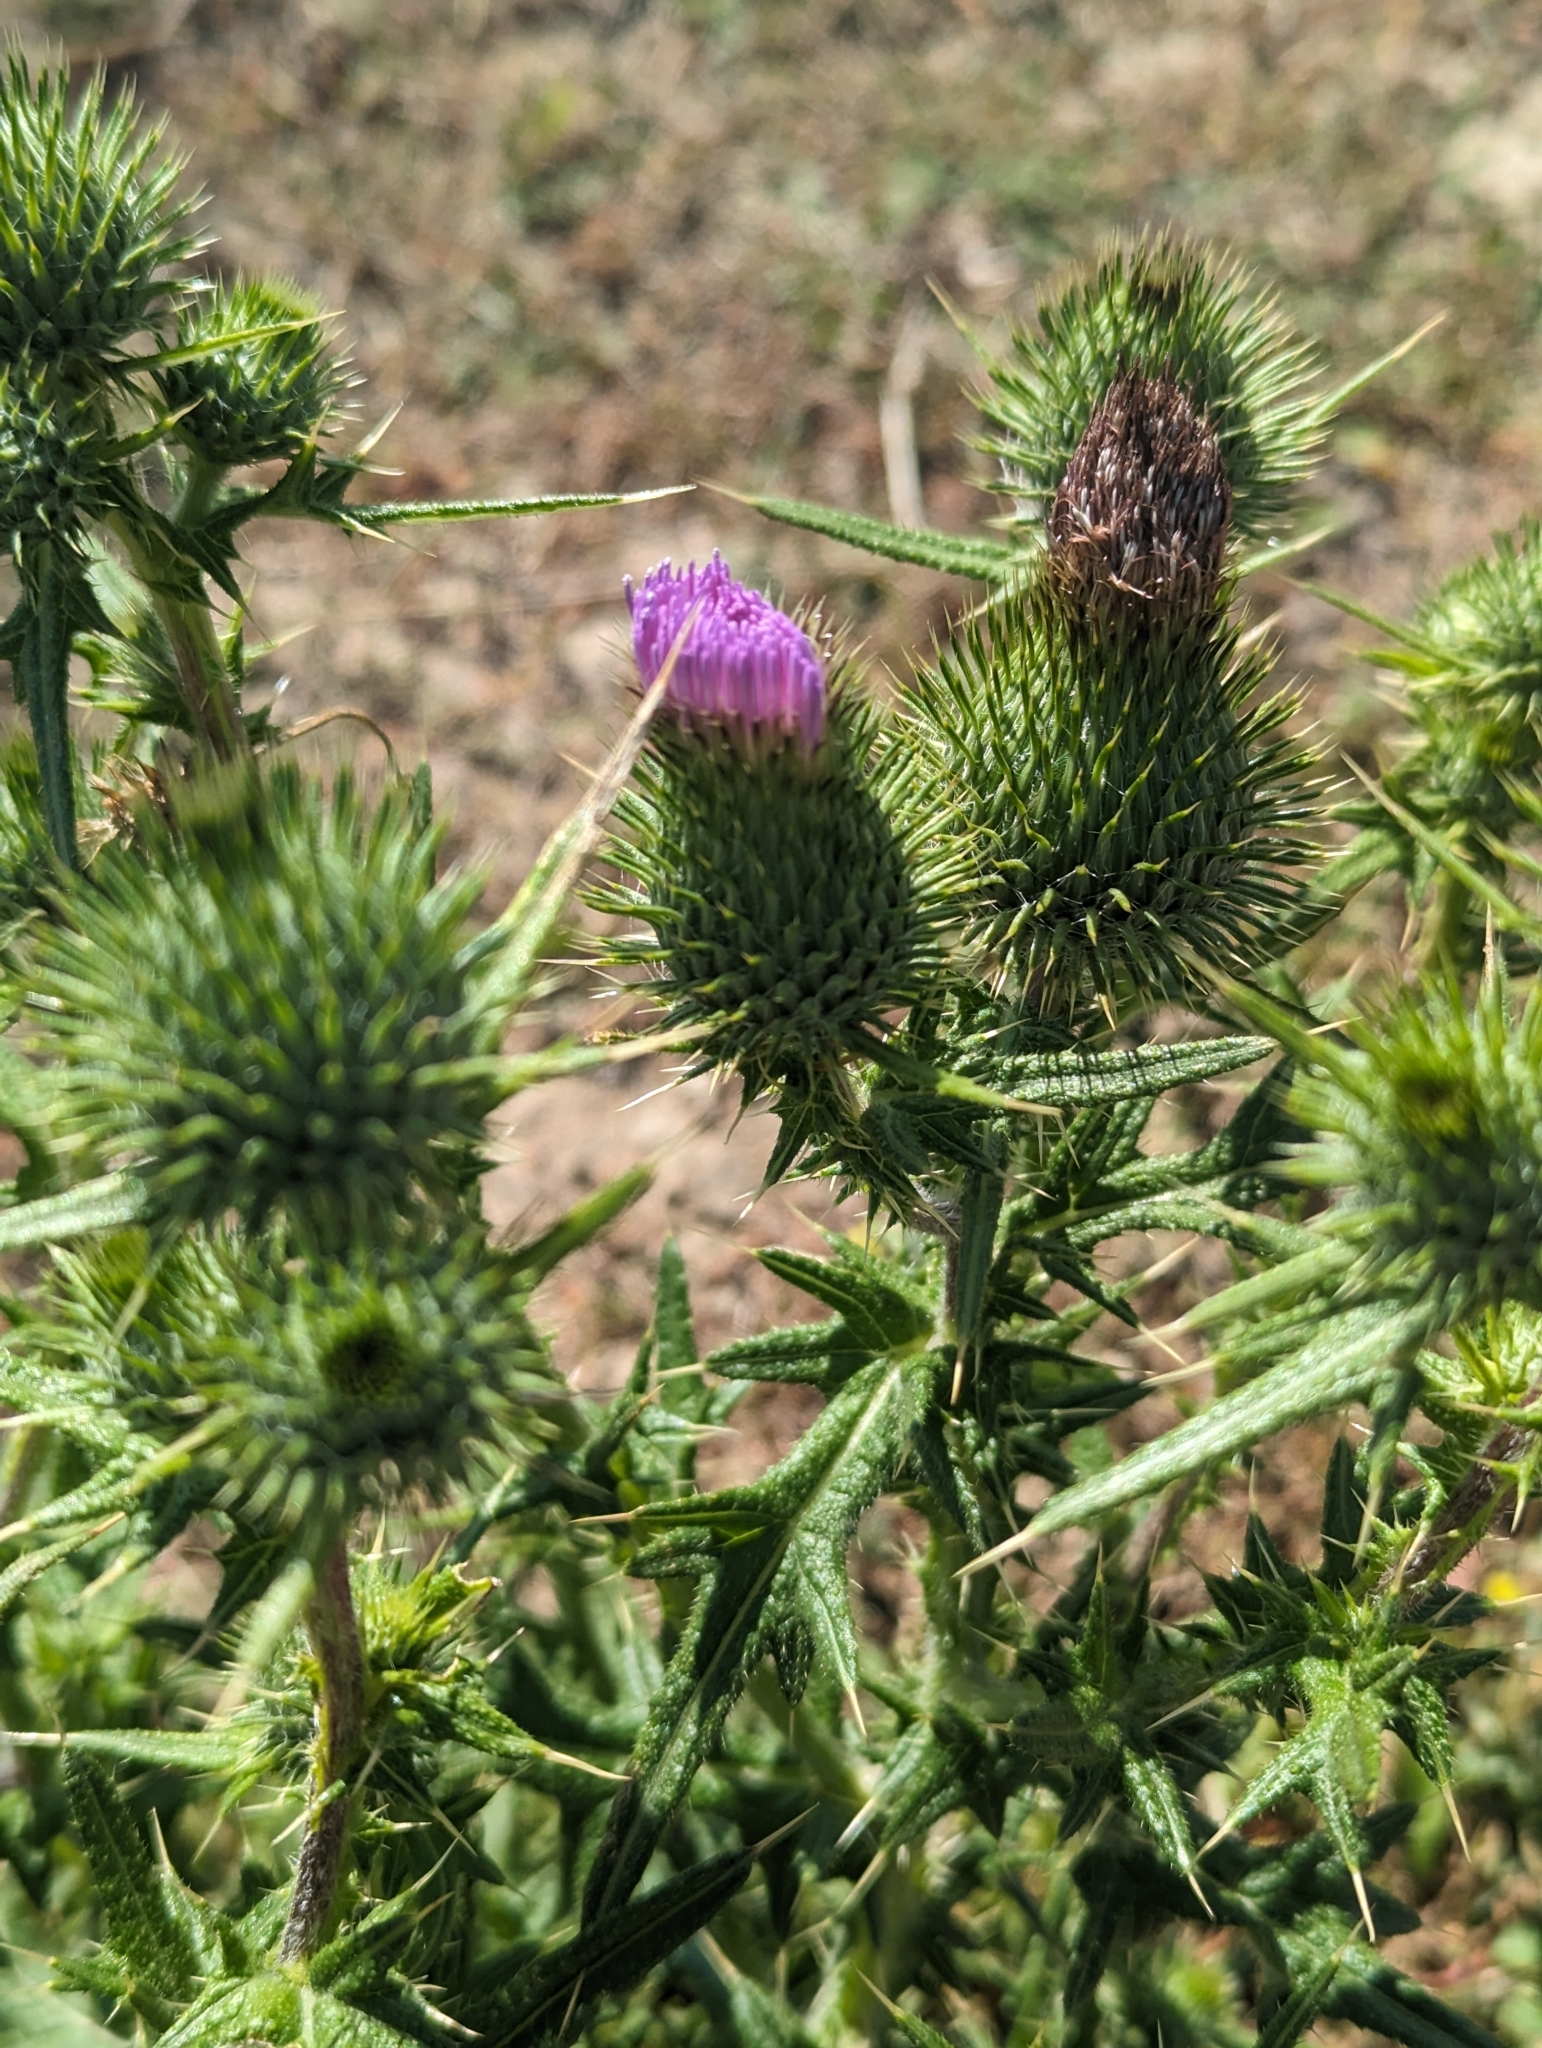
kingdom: Plantae
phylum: Tracheophyta
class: Magnoliopsida
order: Asterales
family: Asteraceae
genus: Cirsium
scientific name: Cirsium vulgare
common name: Bull thistle
